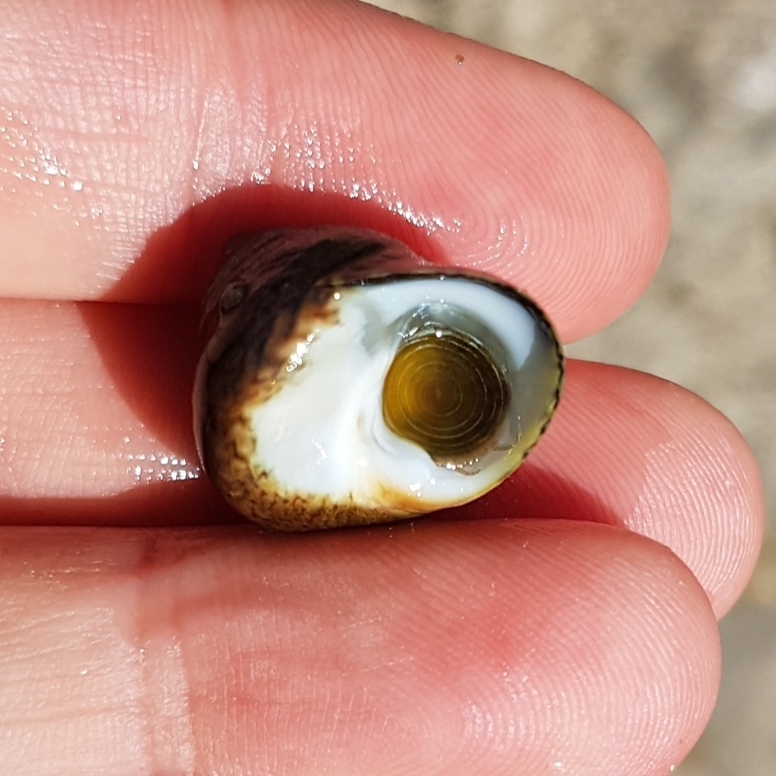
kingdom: Animalia
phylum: Mollusca
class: Gastropoda
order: Trochida
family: Trochidae
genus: Phorcus
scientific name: Phorcus lineatus
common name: Toothed top shell
